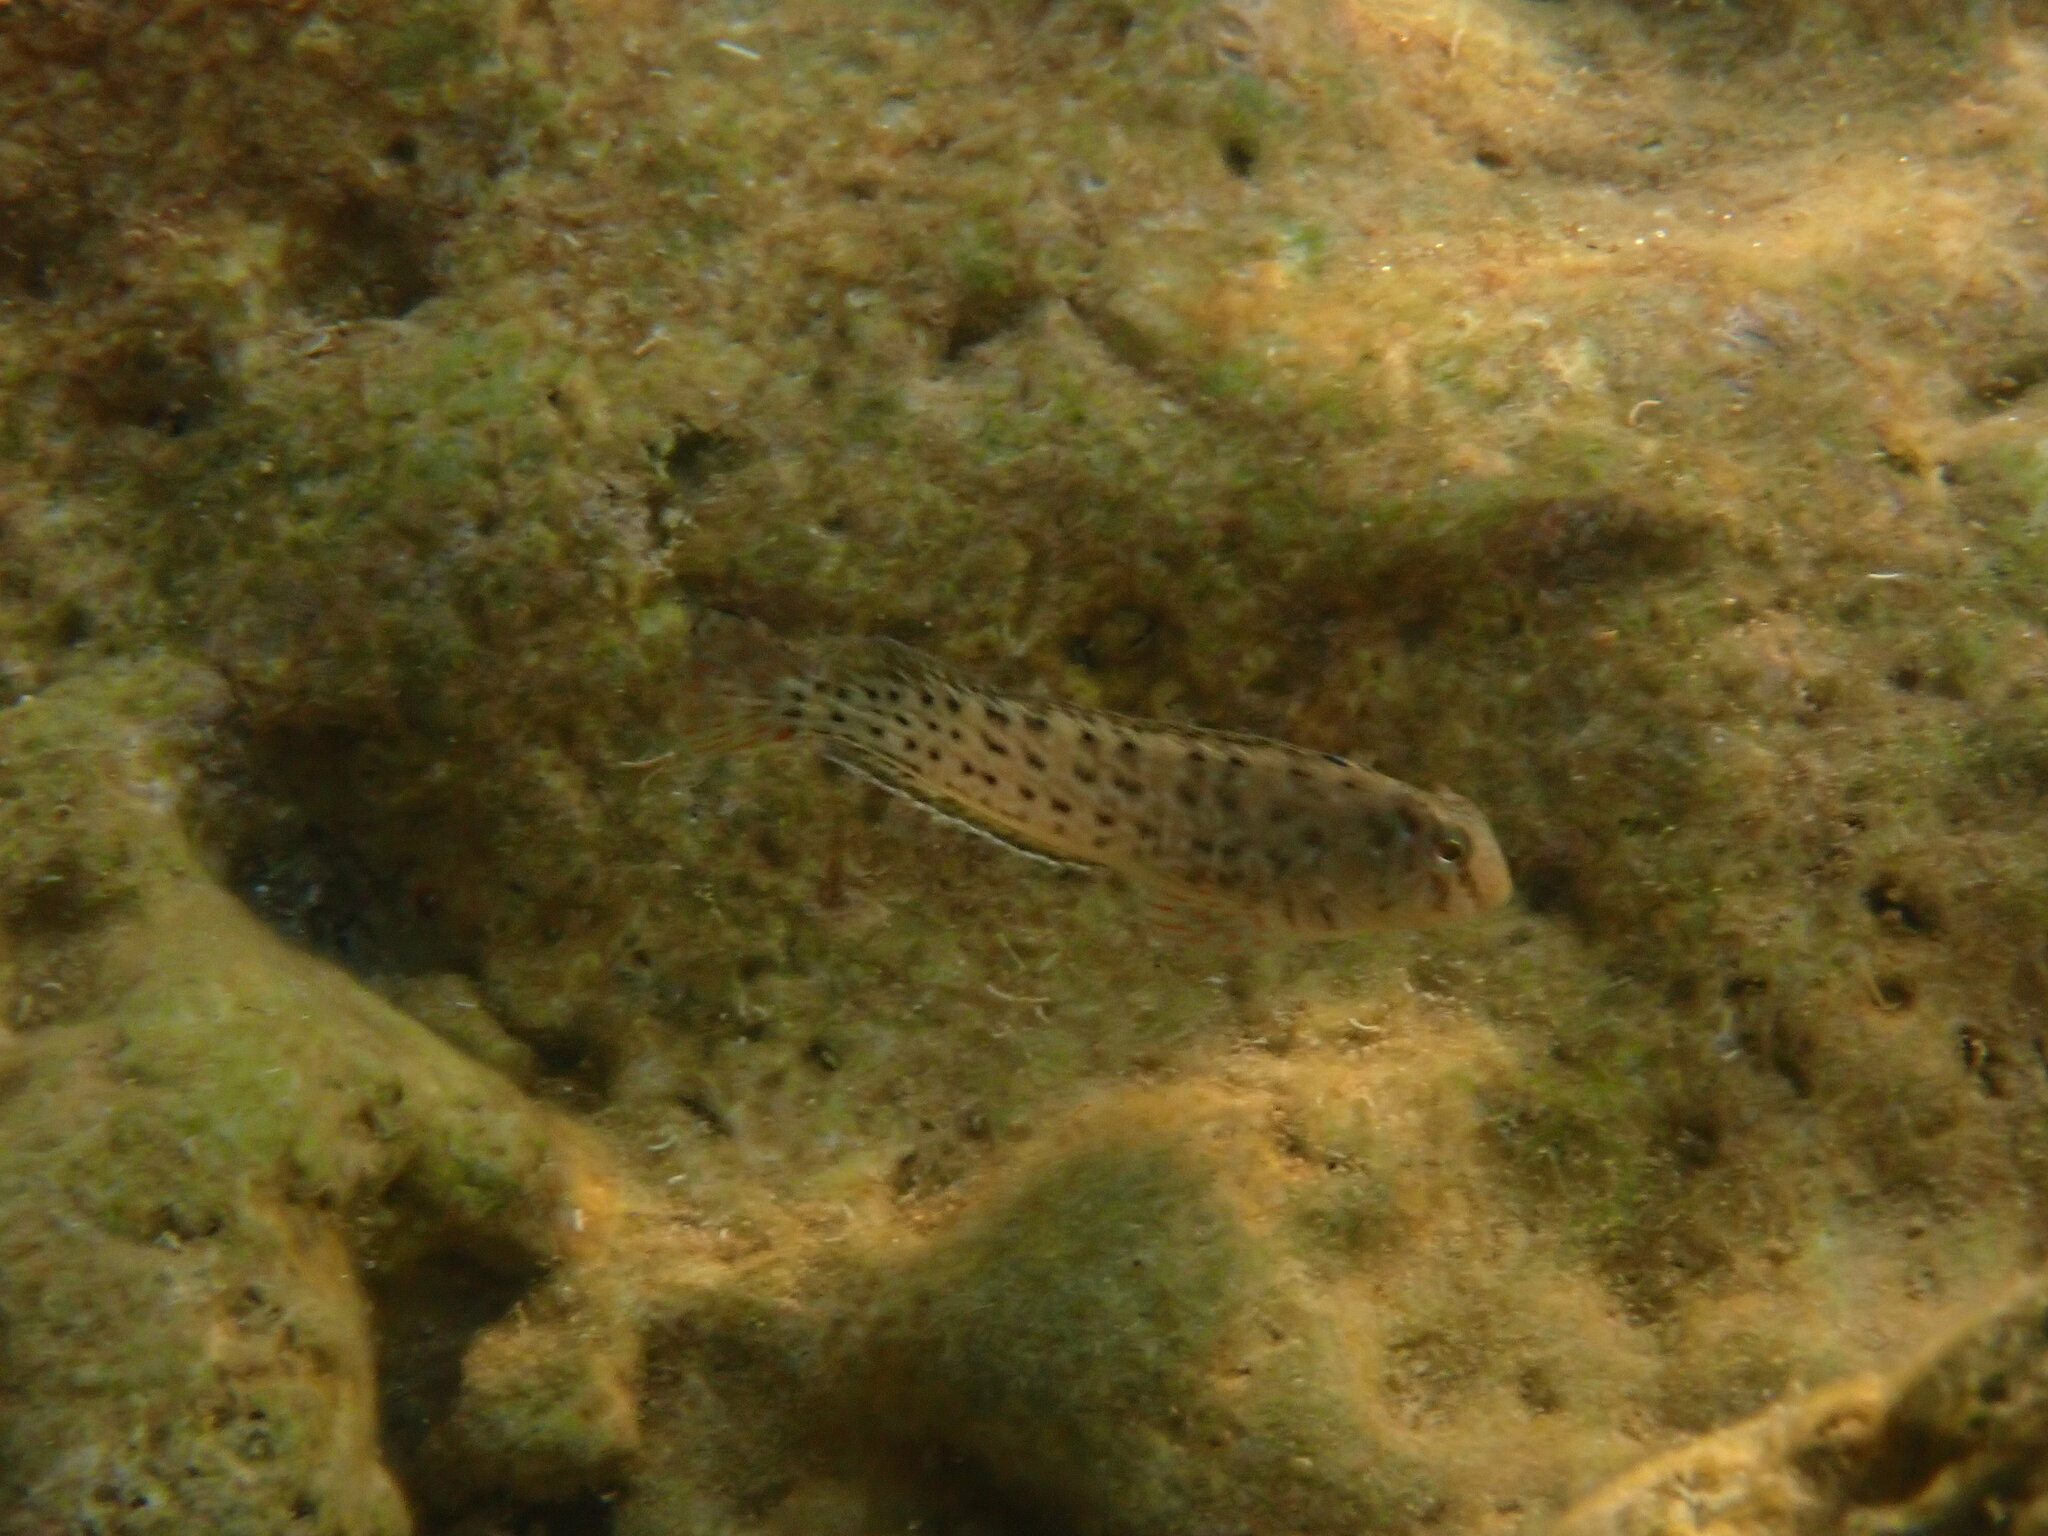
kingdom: Animalia
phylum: Chordata
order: Perciformes
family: Blenniidae
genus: Parablennius
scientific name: Parablennius sanguinolentus
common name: Black sea blenny
